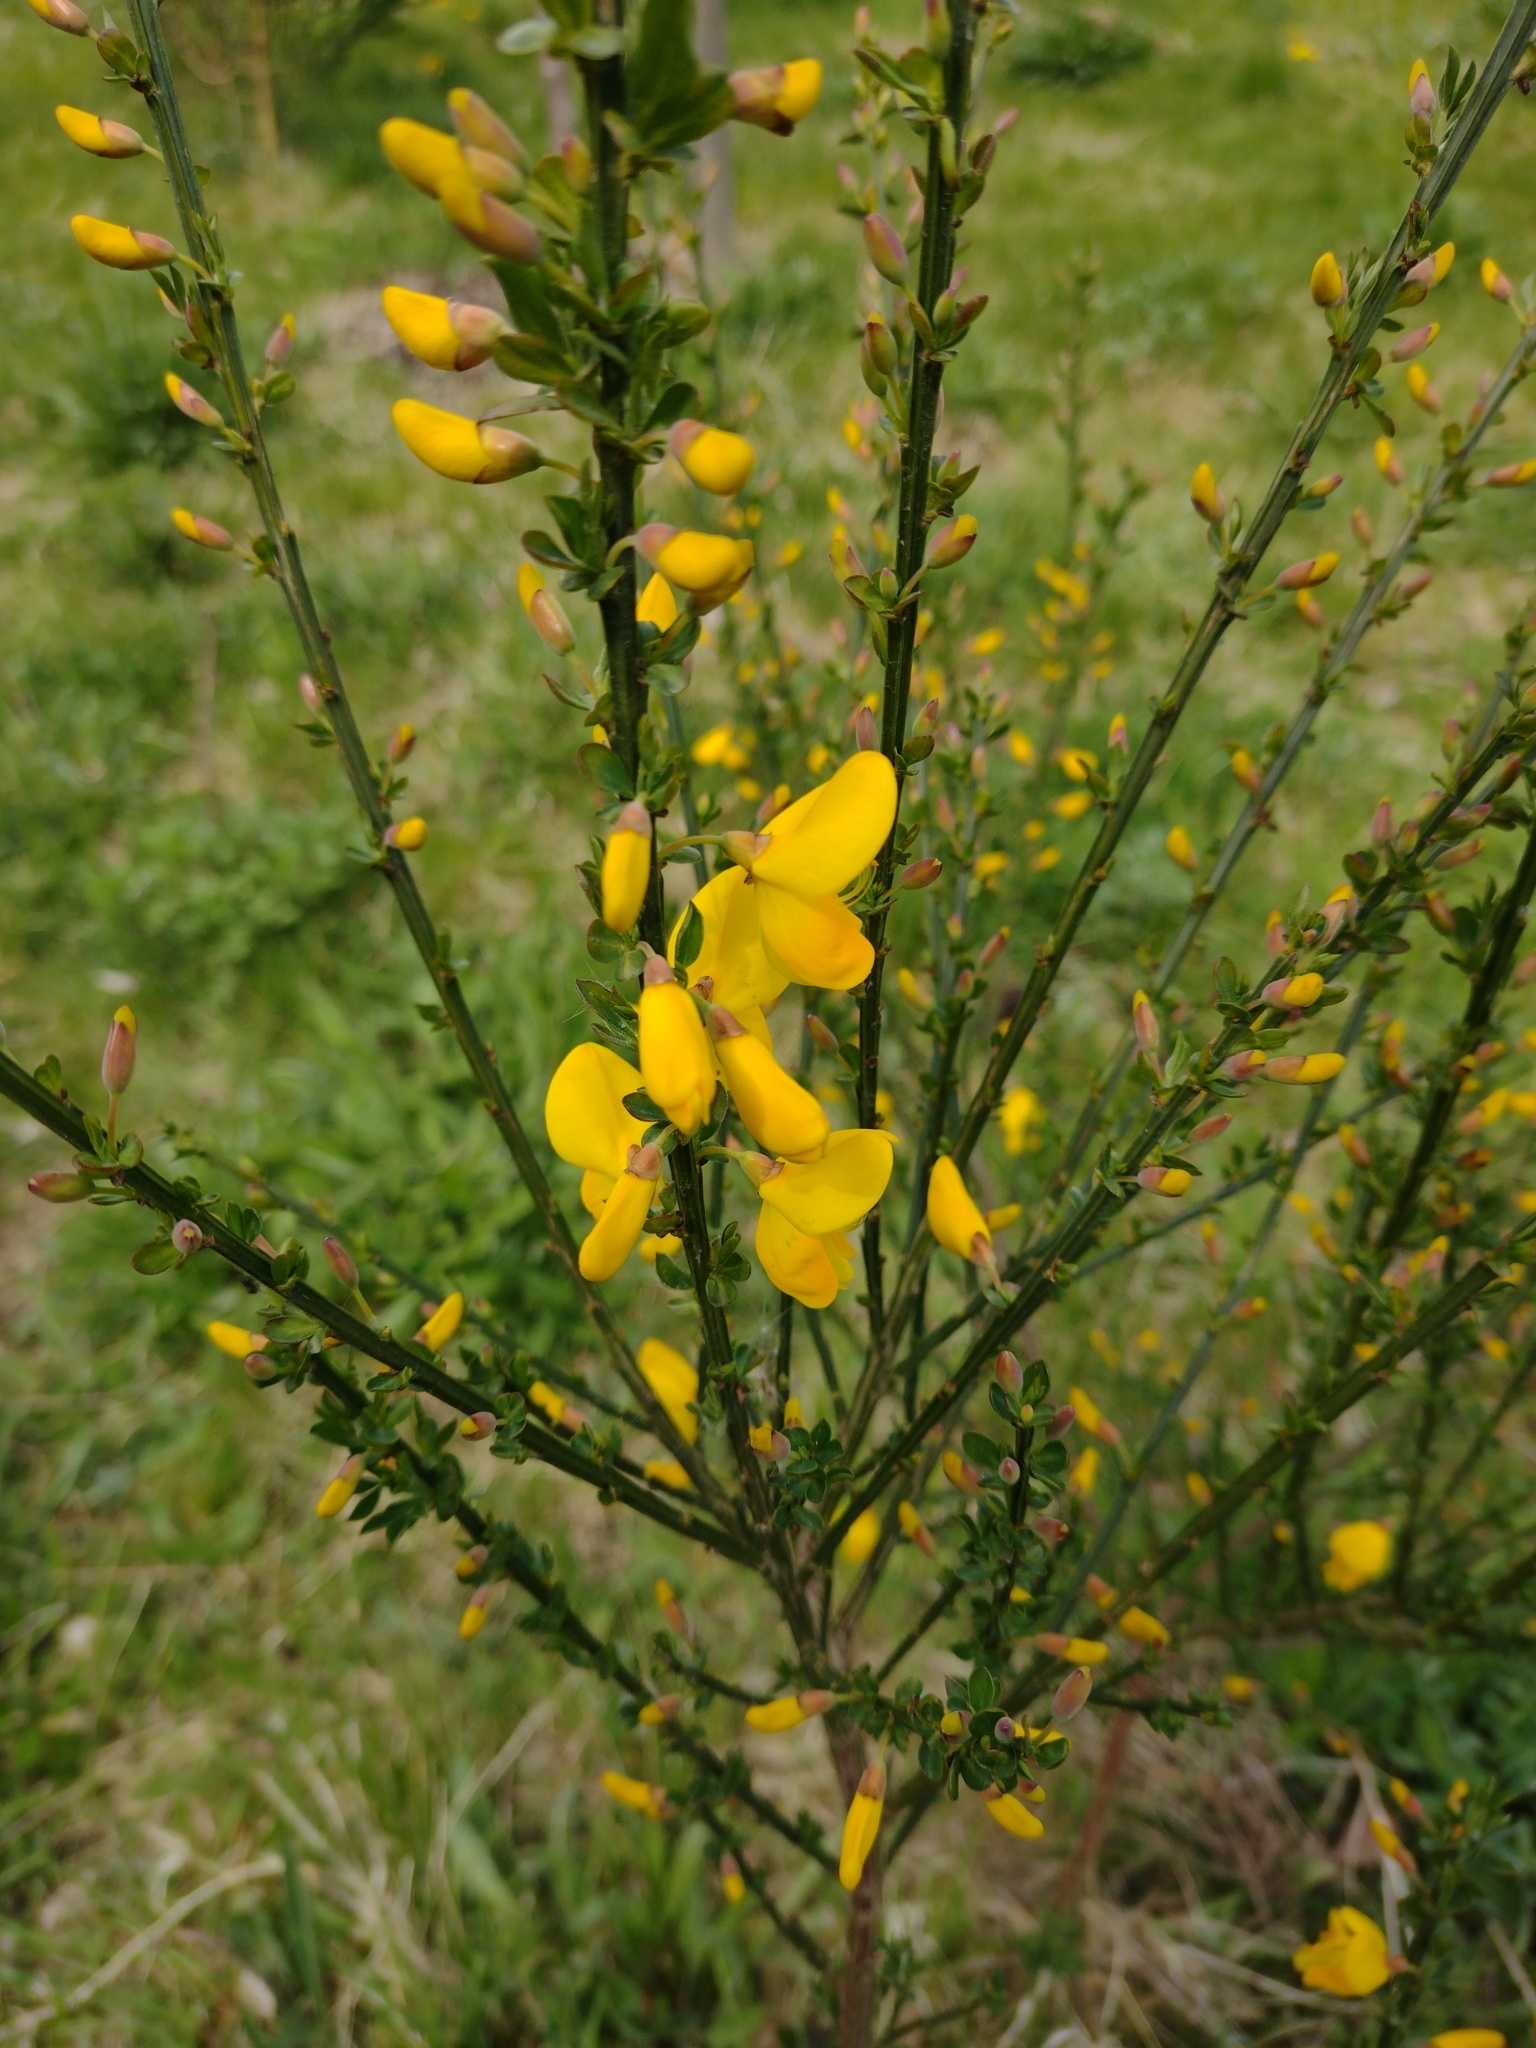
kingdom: Plantae
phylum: Tracheophyta
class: Magnoliopsida
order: Fabales
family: Fabaceae
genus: Cytisus
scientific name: Cytisus scoparius
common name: Scotch broom
